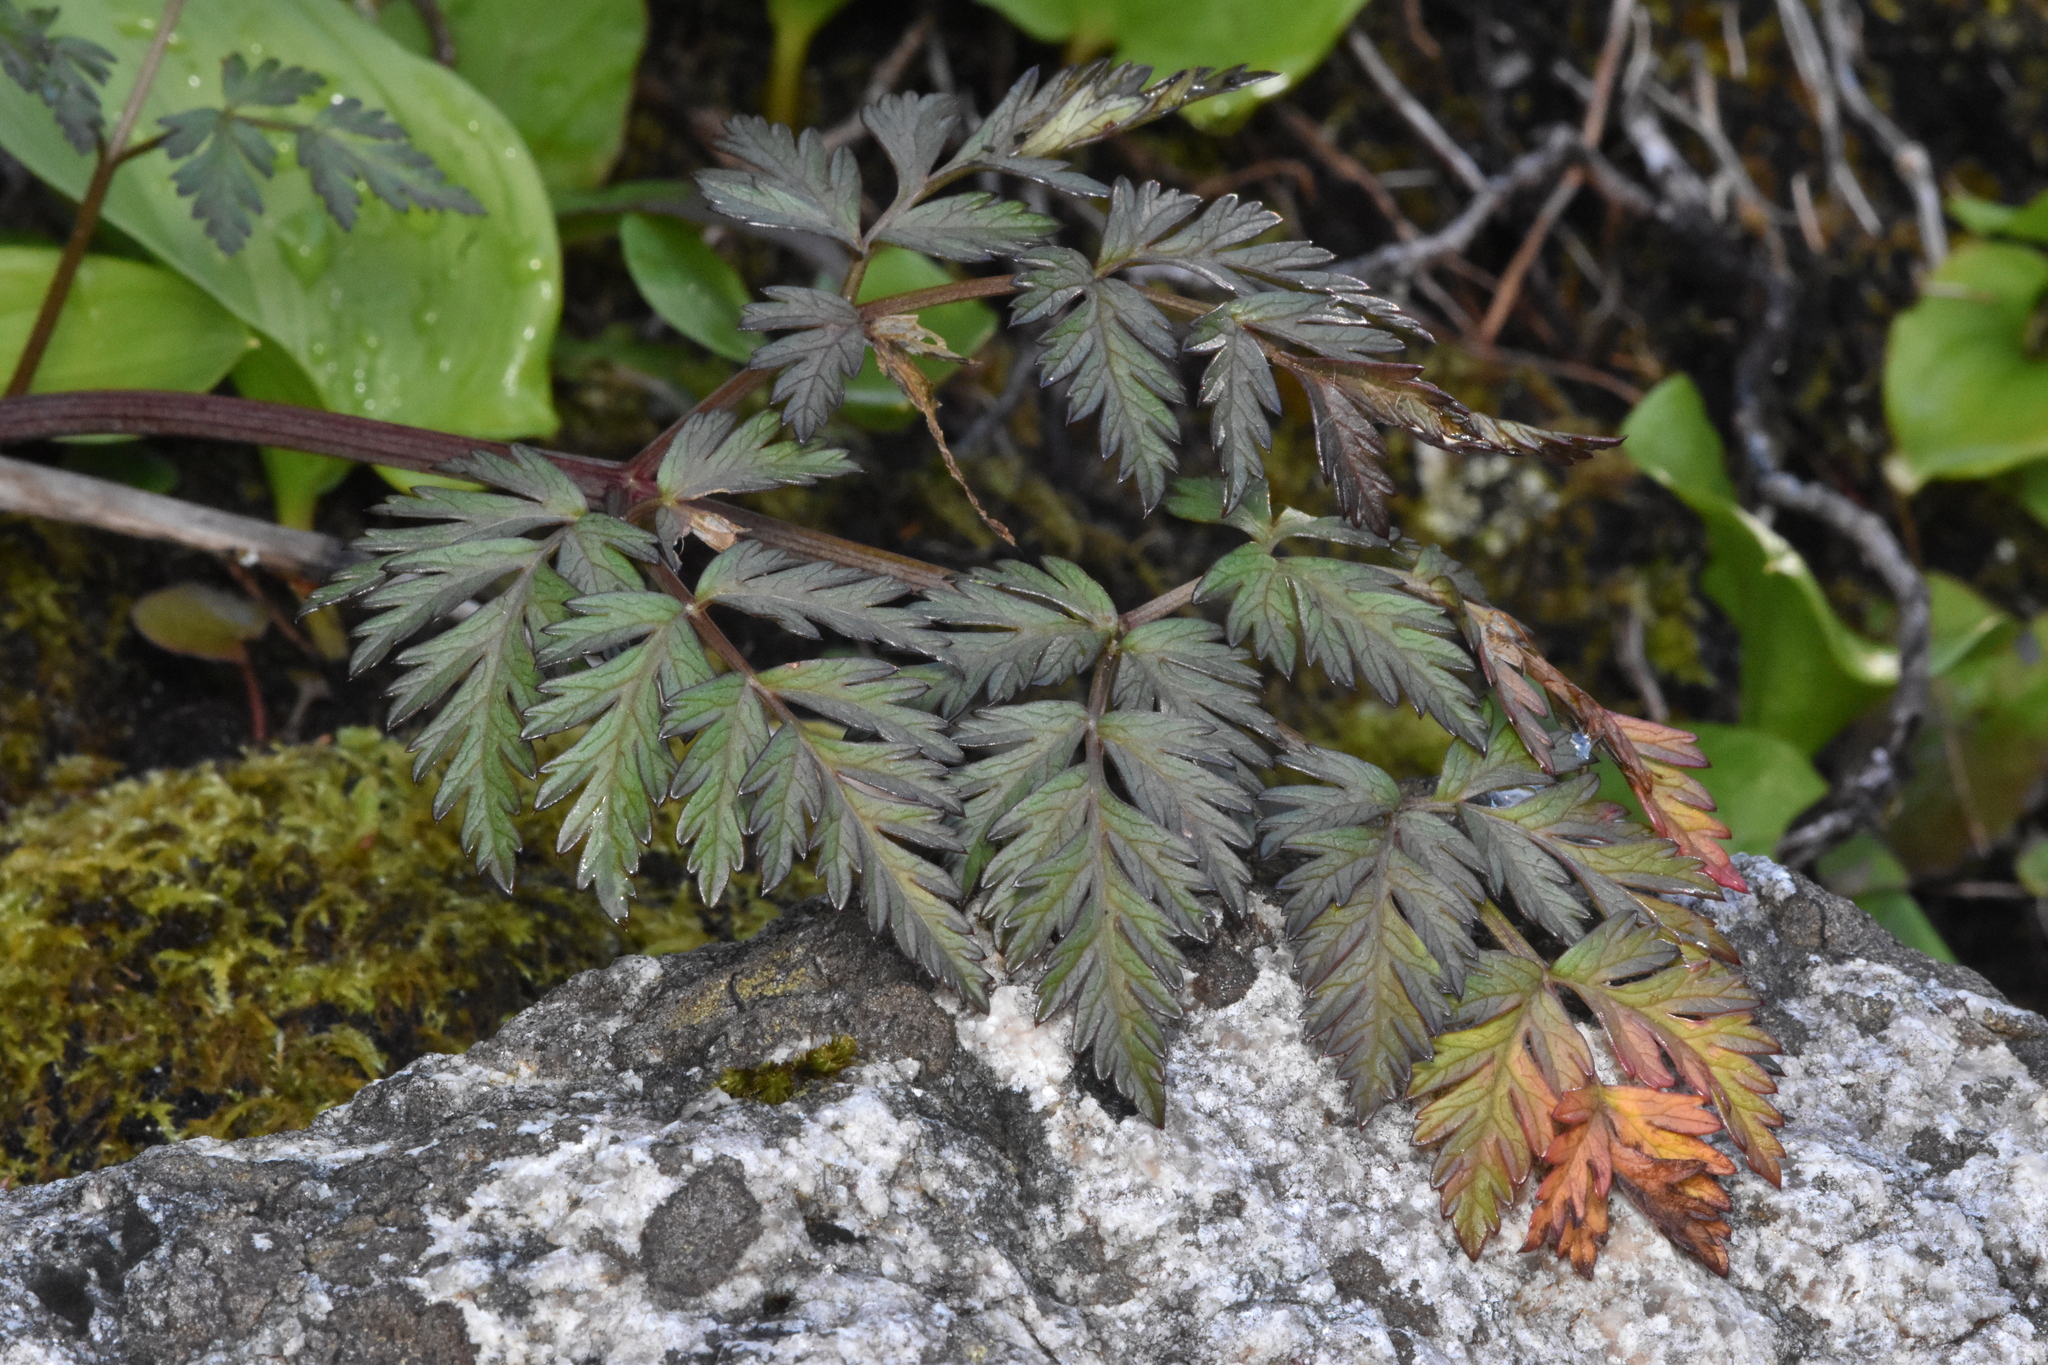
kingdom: Plantae
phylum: Tracheophyta
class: Magnoliopsida
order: Apiales
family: Apiaceae
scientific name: Apiaceae
